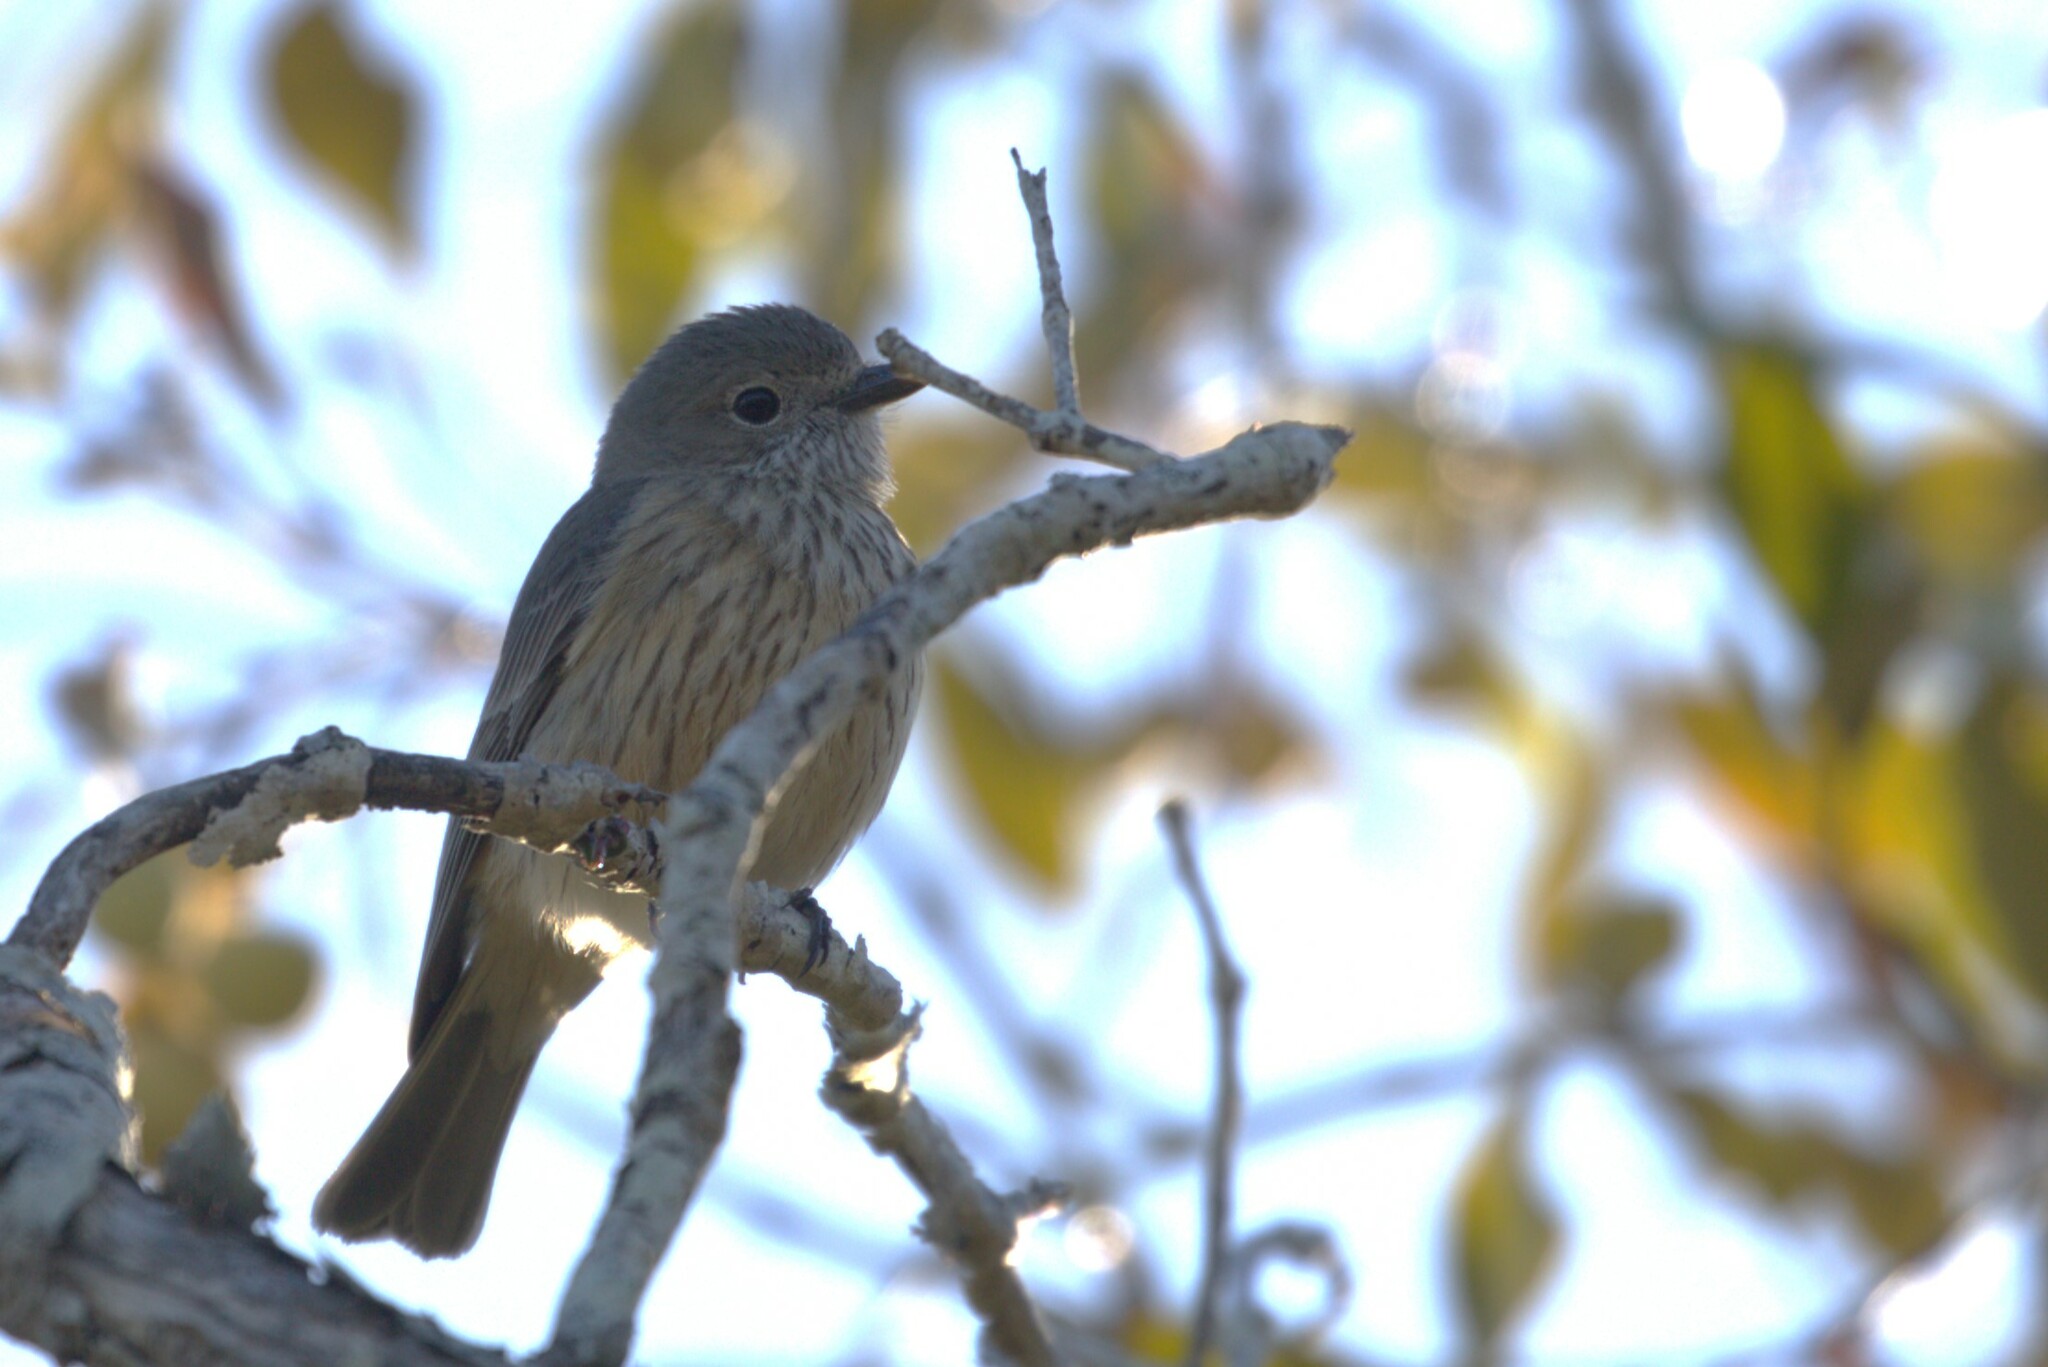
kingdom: Animalia
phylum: Chordata
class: Aves
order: Passeriformes
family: Pachycephalidae
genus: Pachycephala
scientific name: Pachycephala rufiventris
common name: Rufous whistler
